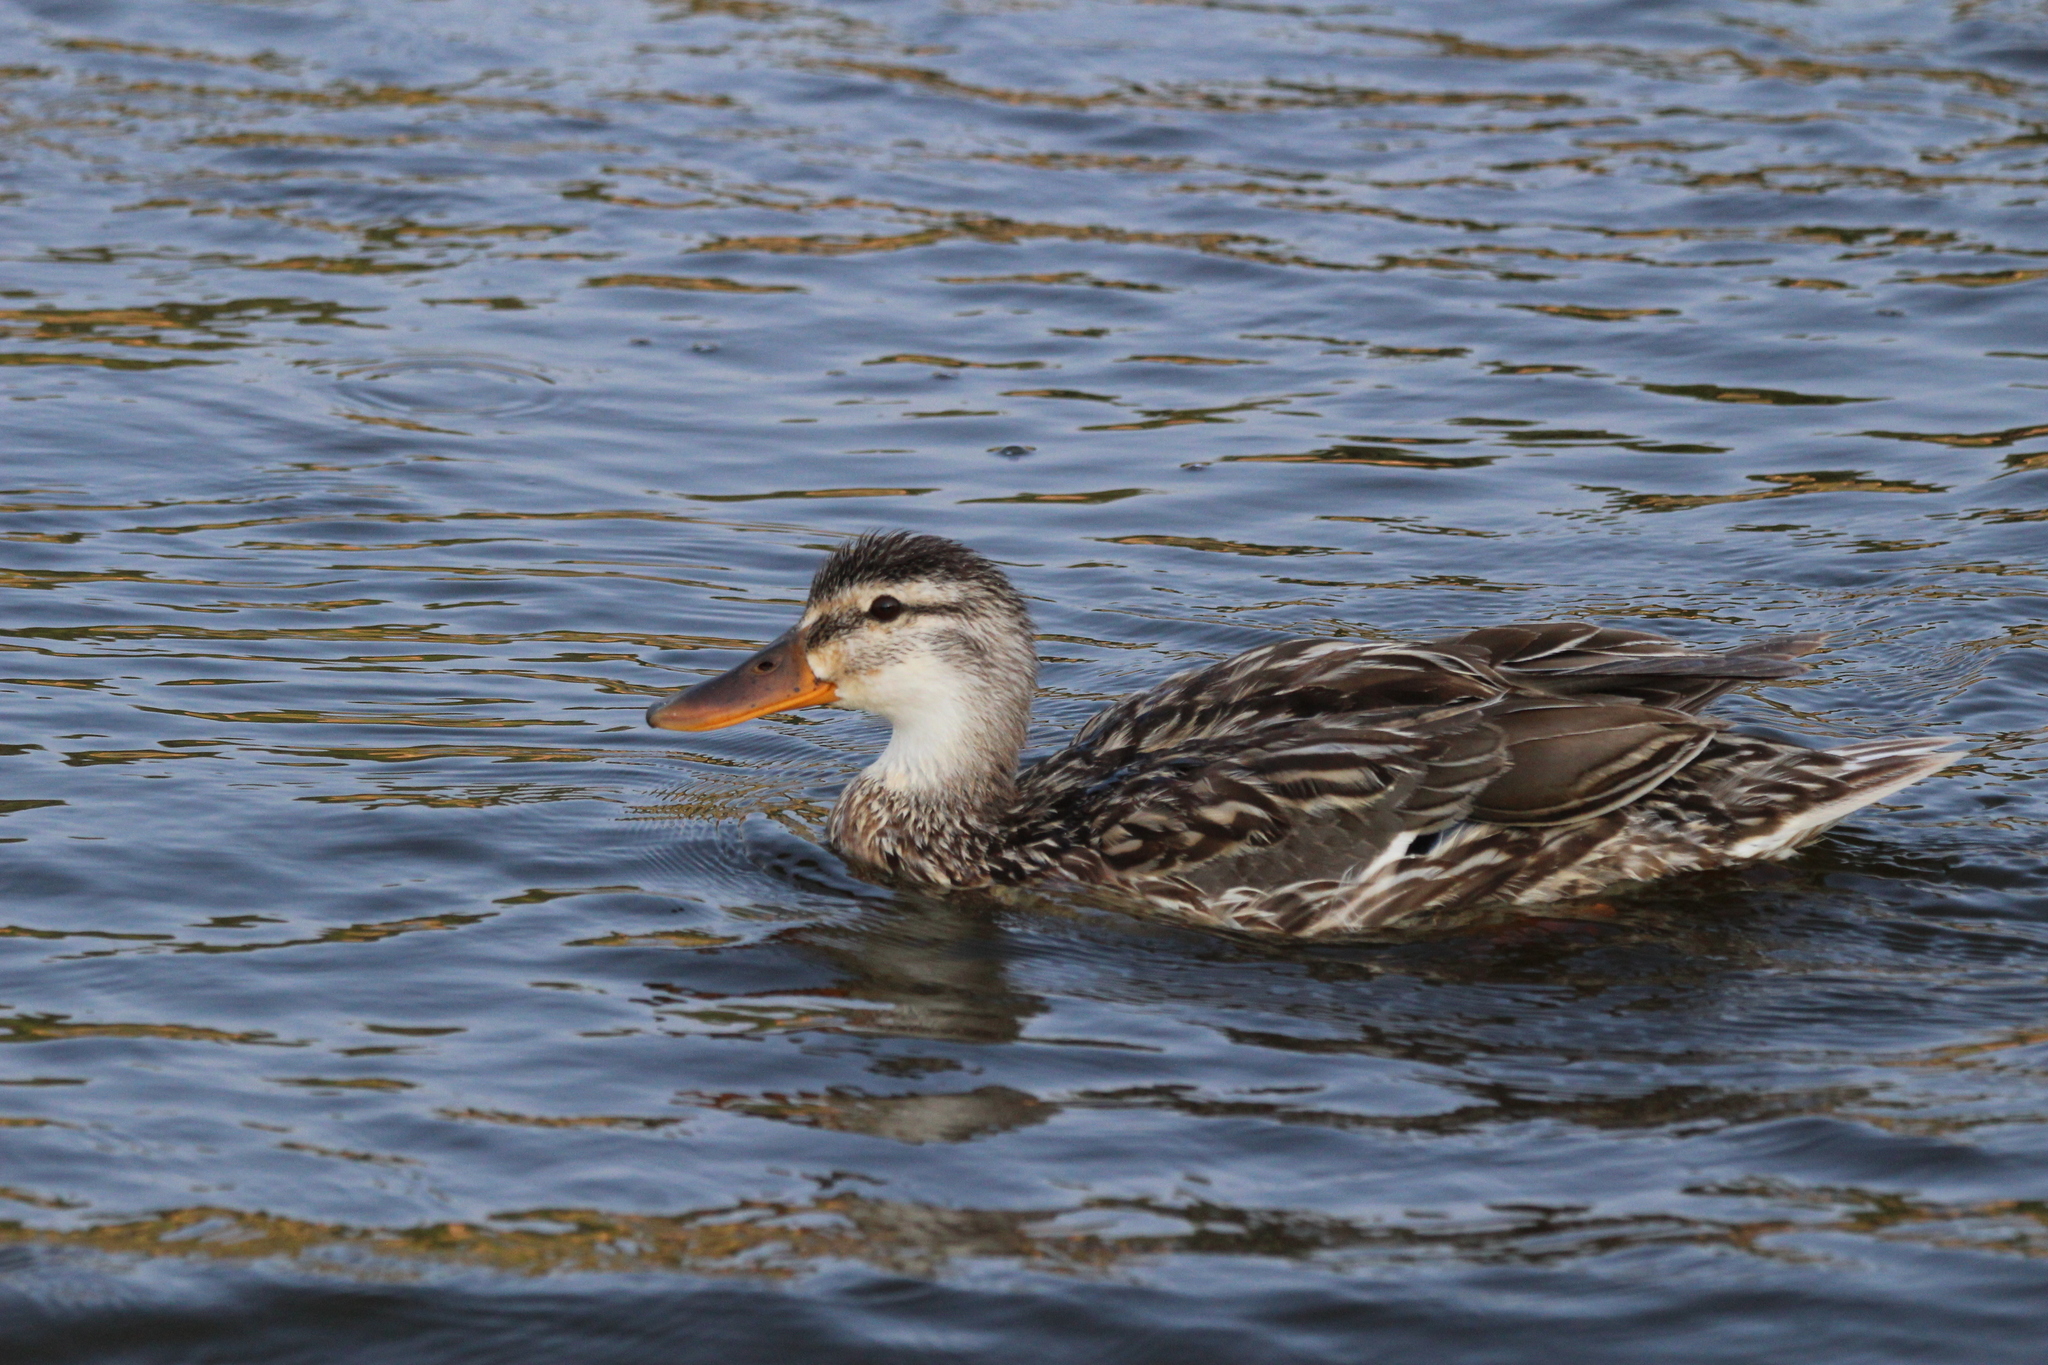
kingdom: Animalia
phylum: Chordata
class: Aves
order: Anseriformes
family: Anatidae
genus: Anas
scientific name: Anas platyrhynchos
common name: Mallard
